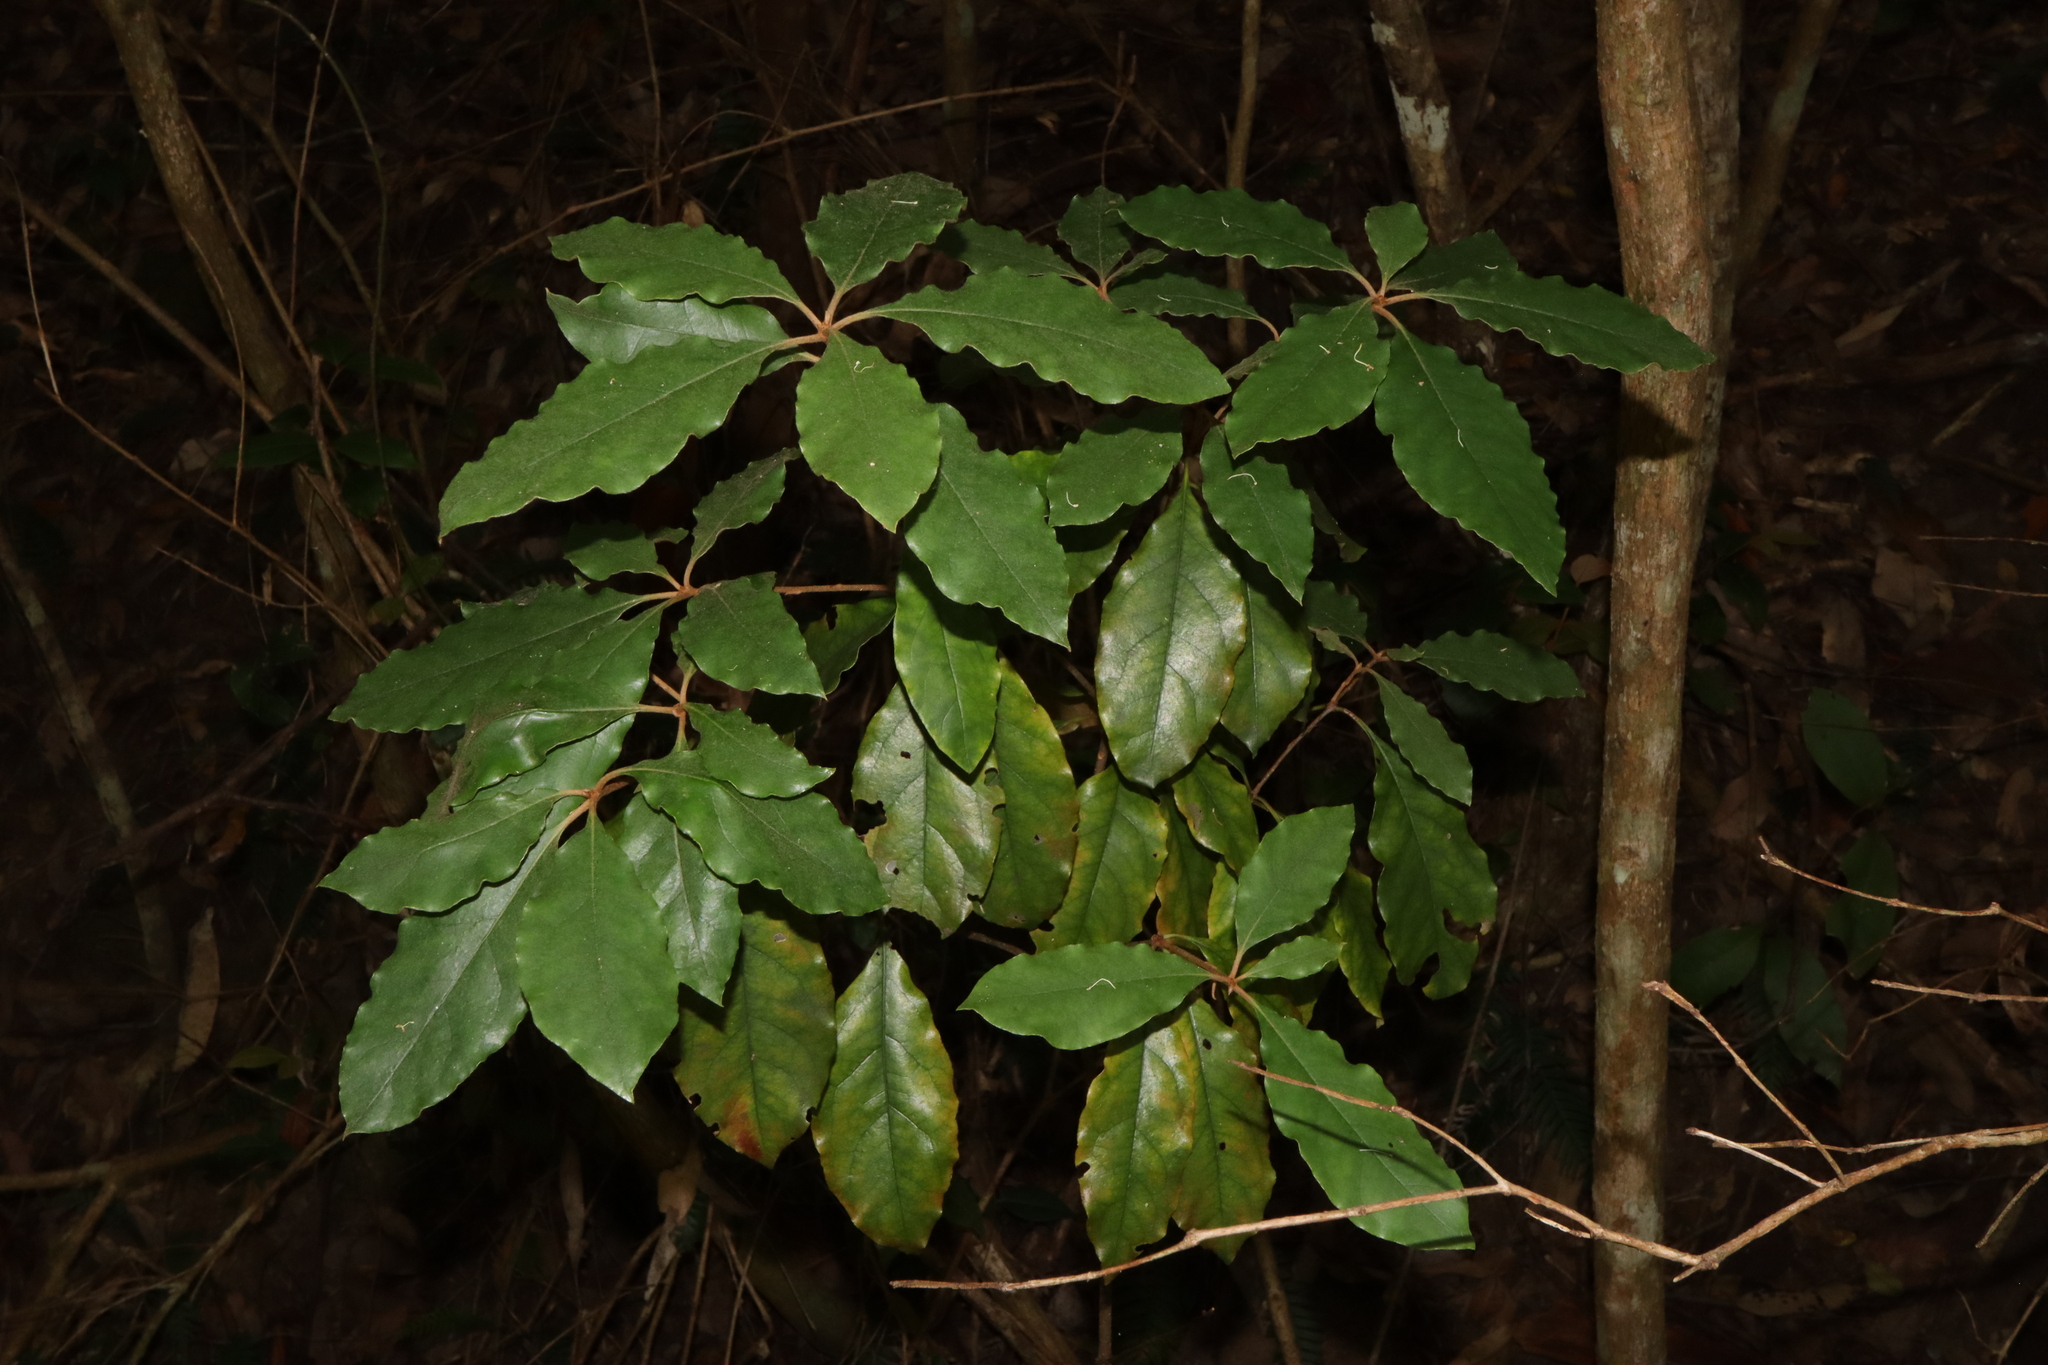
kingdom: Plantae
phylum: Tracheophyta
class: Magnoliopsida
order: Apiales
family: Pittosporaceae
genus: Pittosporum
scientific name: Pittosporum revolutum
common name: Brisbane-laurel
